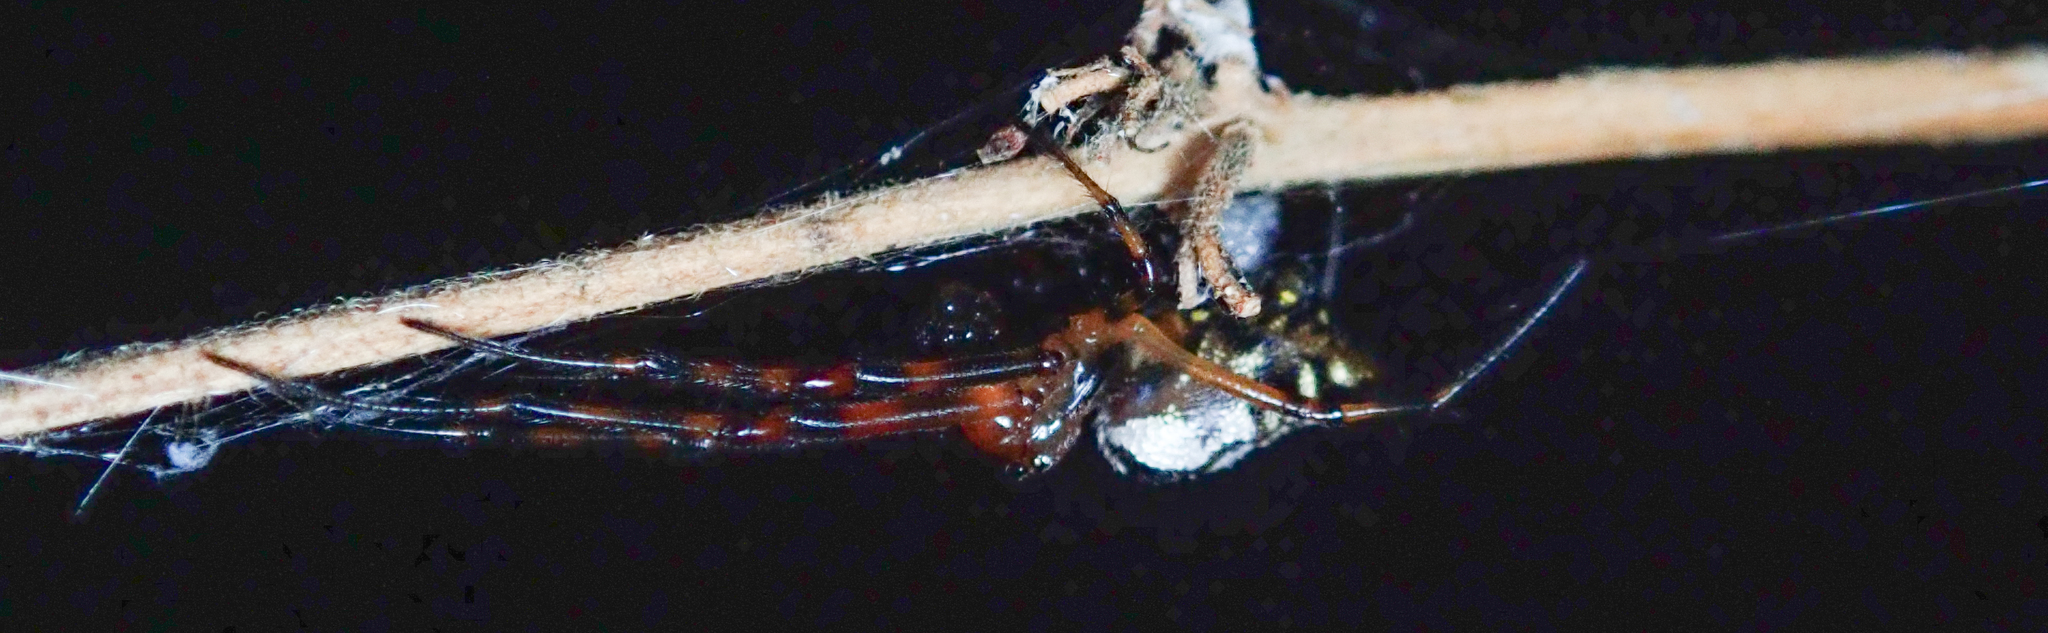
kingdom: Animalia
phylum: Arthropoda
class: Arachnida
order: Araneae
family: Tetragnathidae
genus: Leucauge
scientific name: Leucauge medjensis
